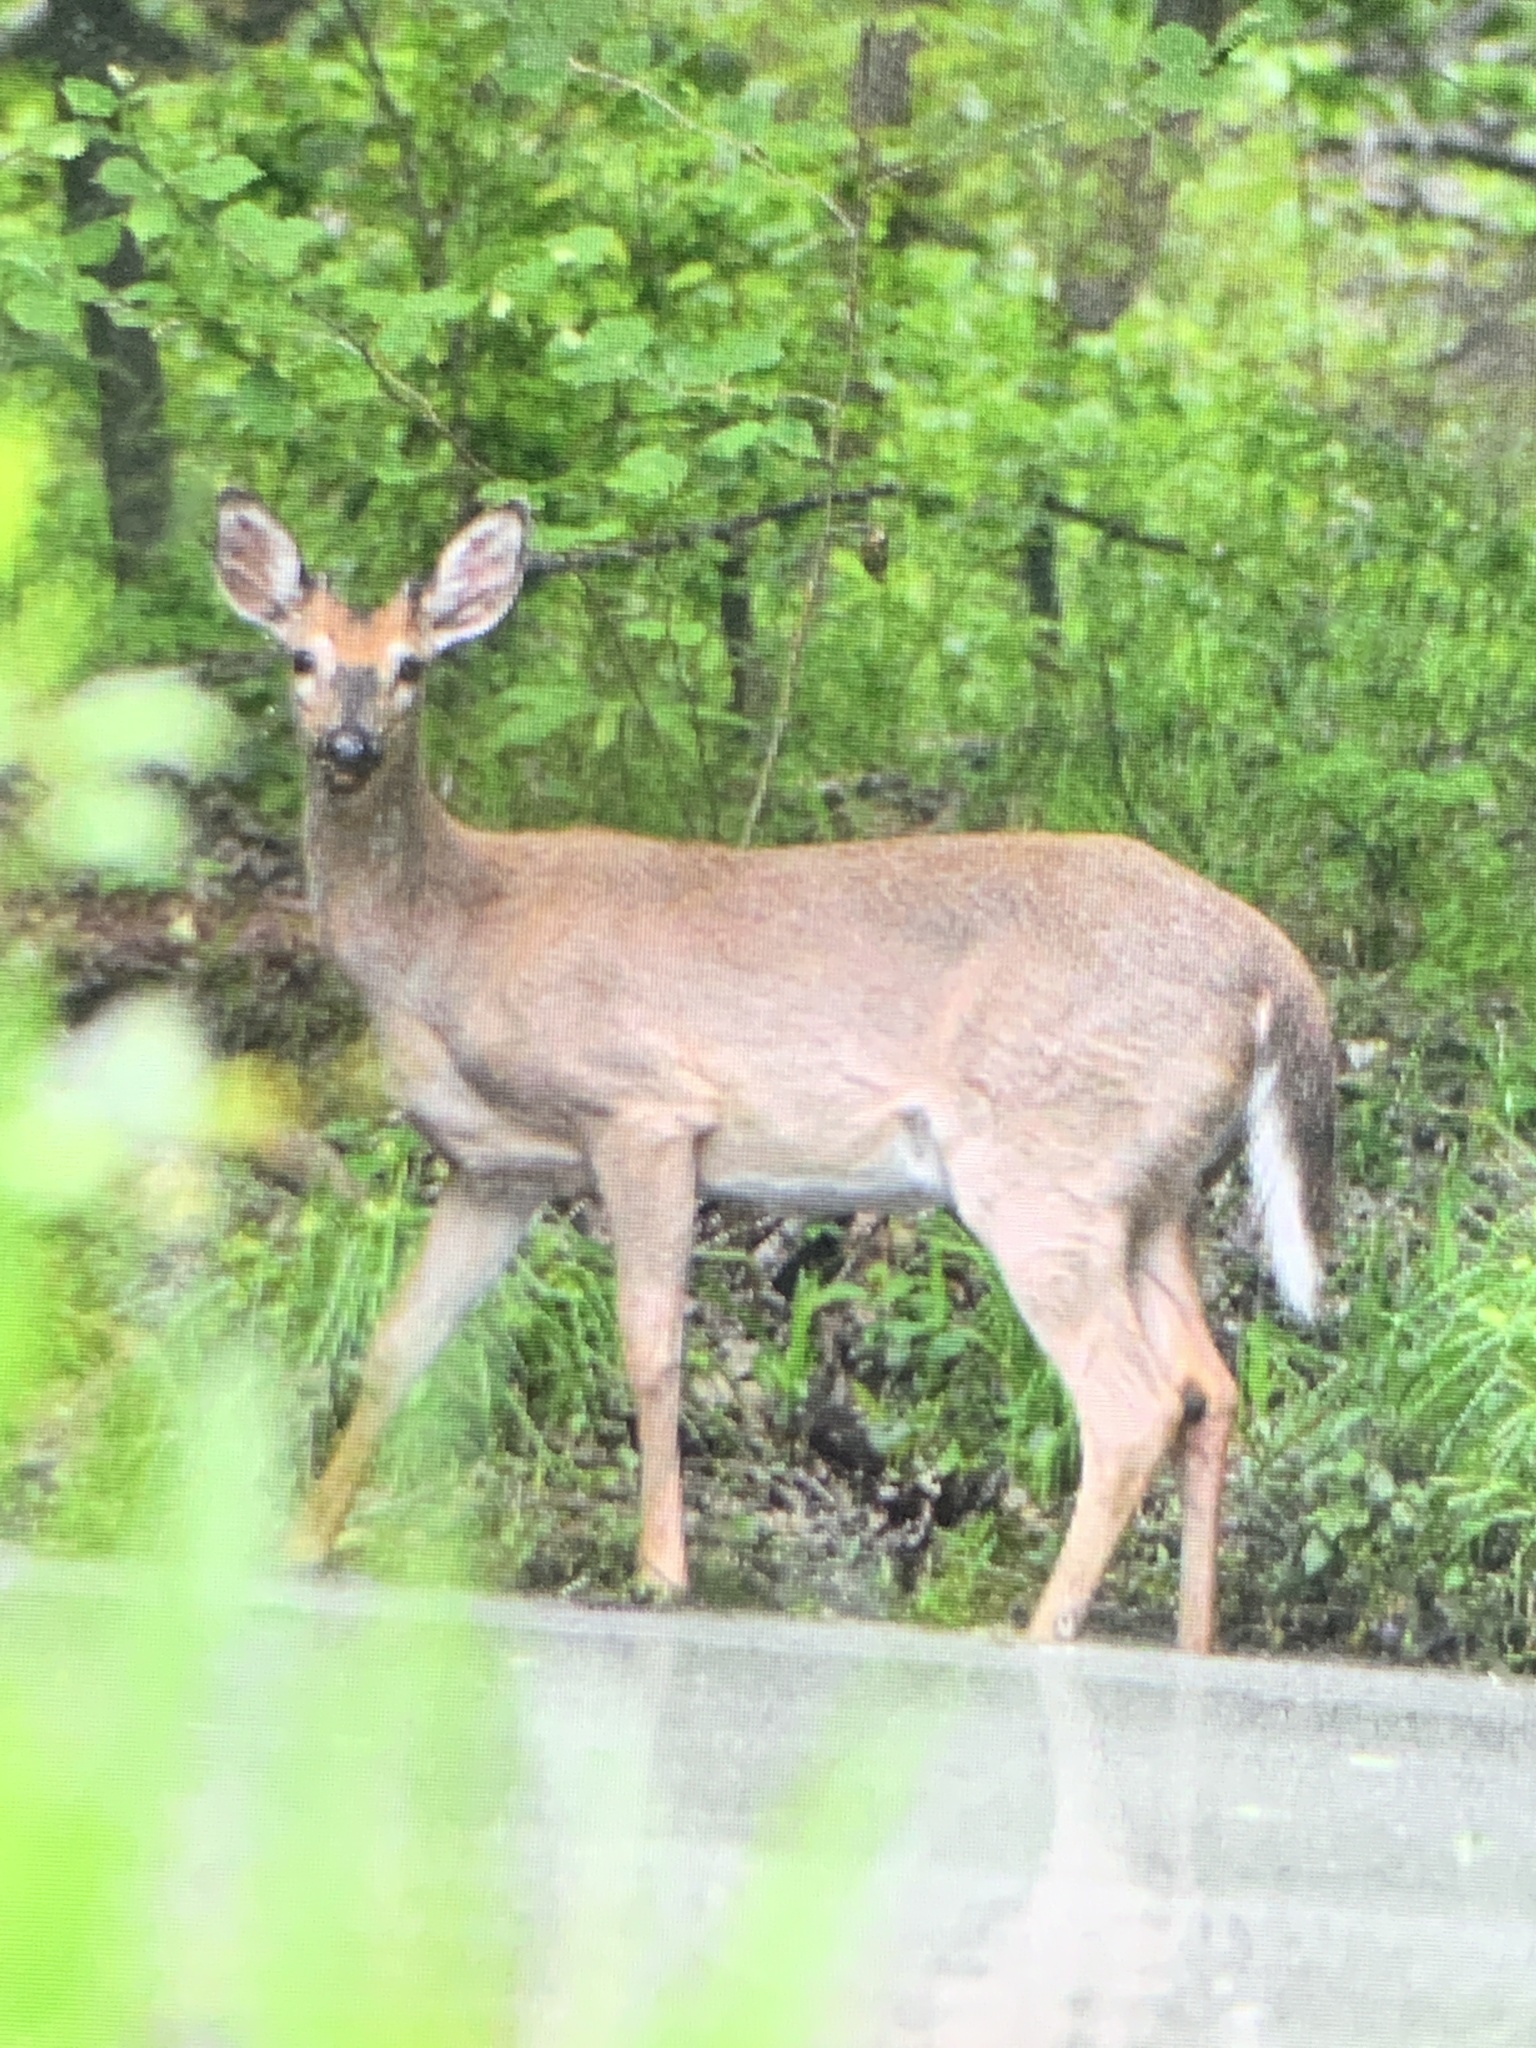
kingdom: Animalia
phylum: Chordata
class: Mammalia
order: Artiodactyla
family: Cervidae
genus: Odocoileus
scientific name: Odocoileus virginianus
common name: White-tailed deer
